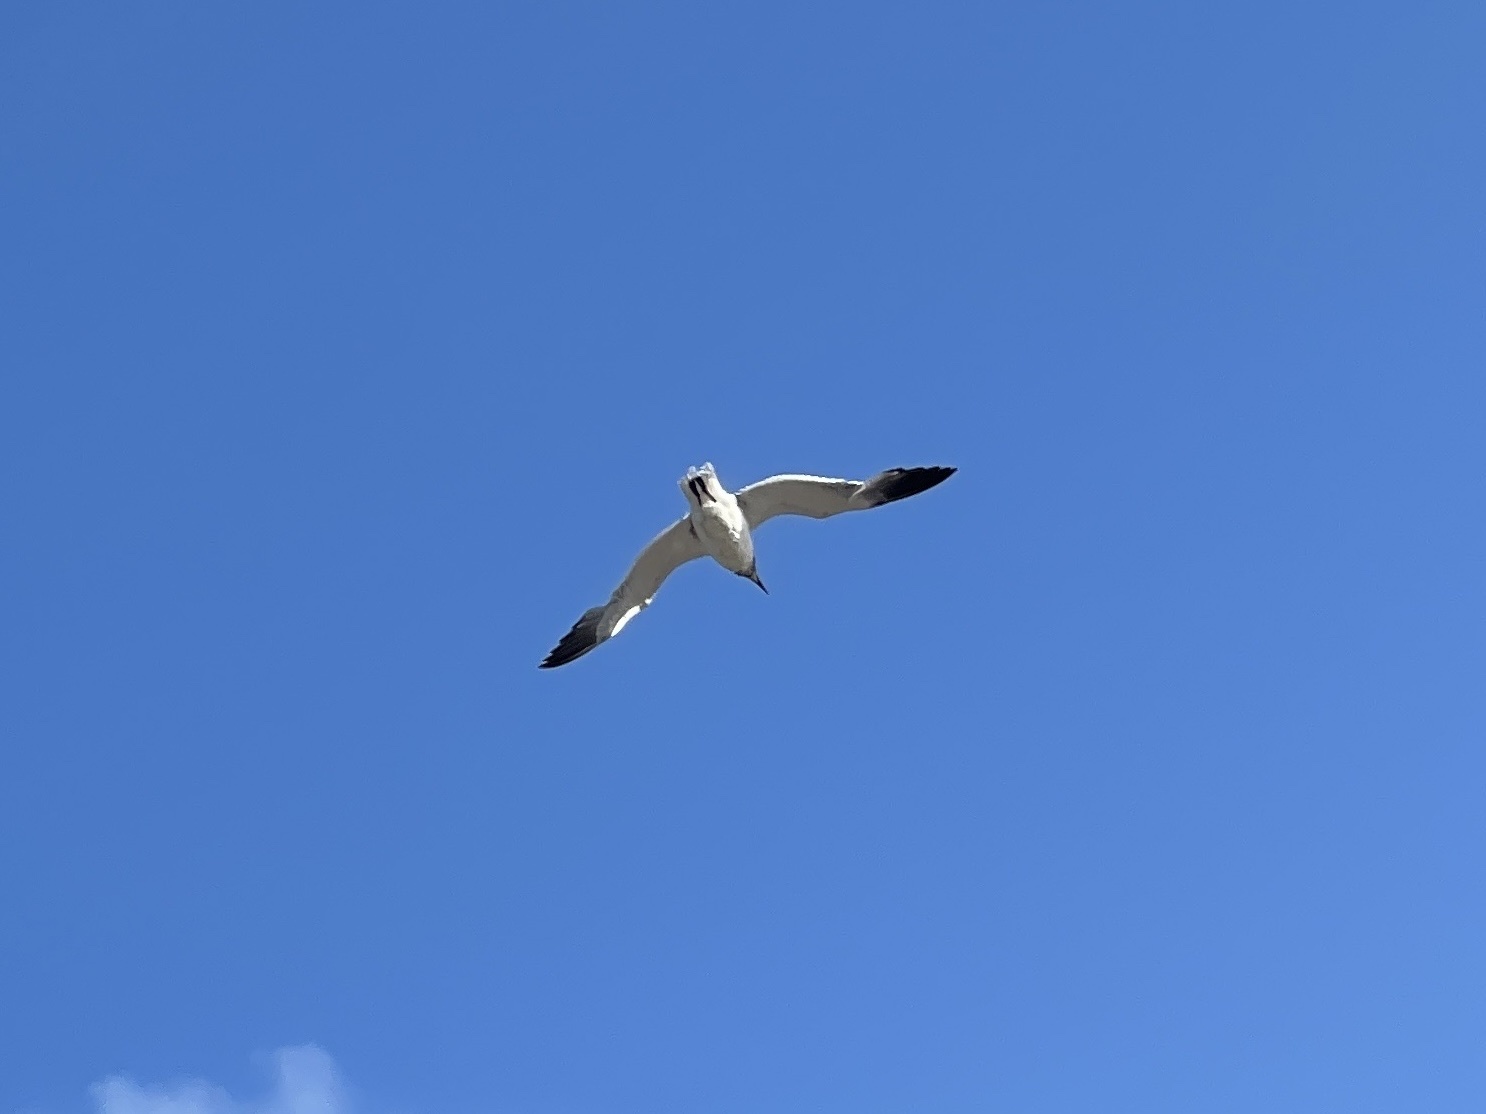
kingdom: Animalia
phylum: Chordata
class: Aves
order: Charadriiformes
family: Laridae
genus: Leucophaeus
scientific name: Leucophaeus atricilla
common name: Laughing gull
